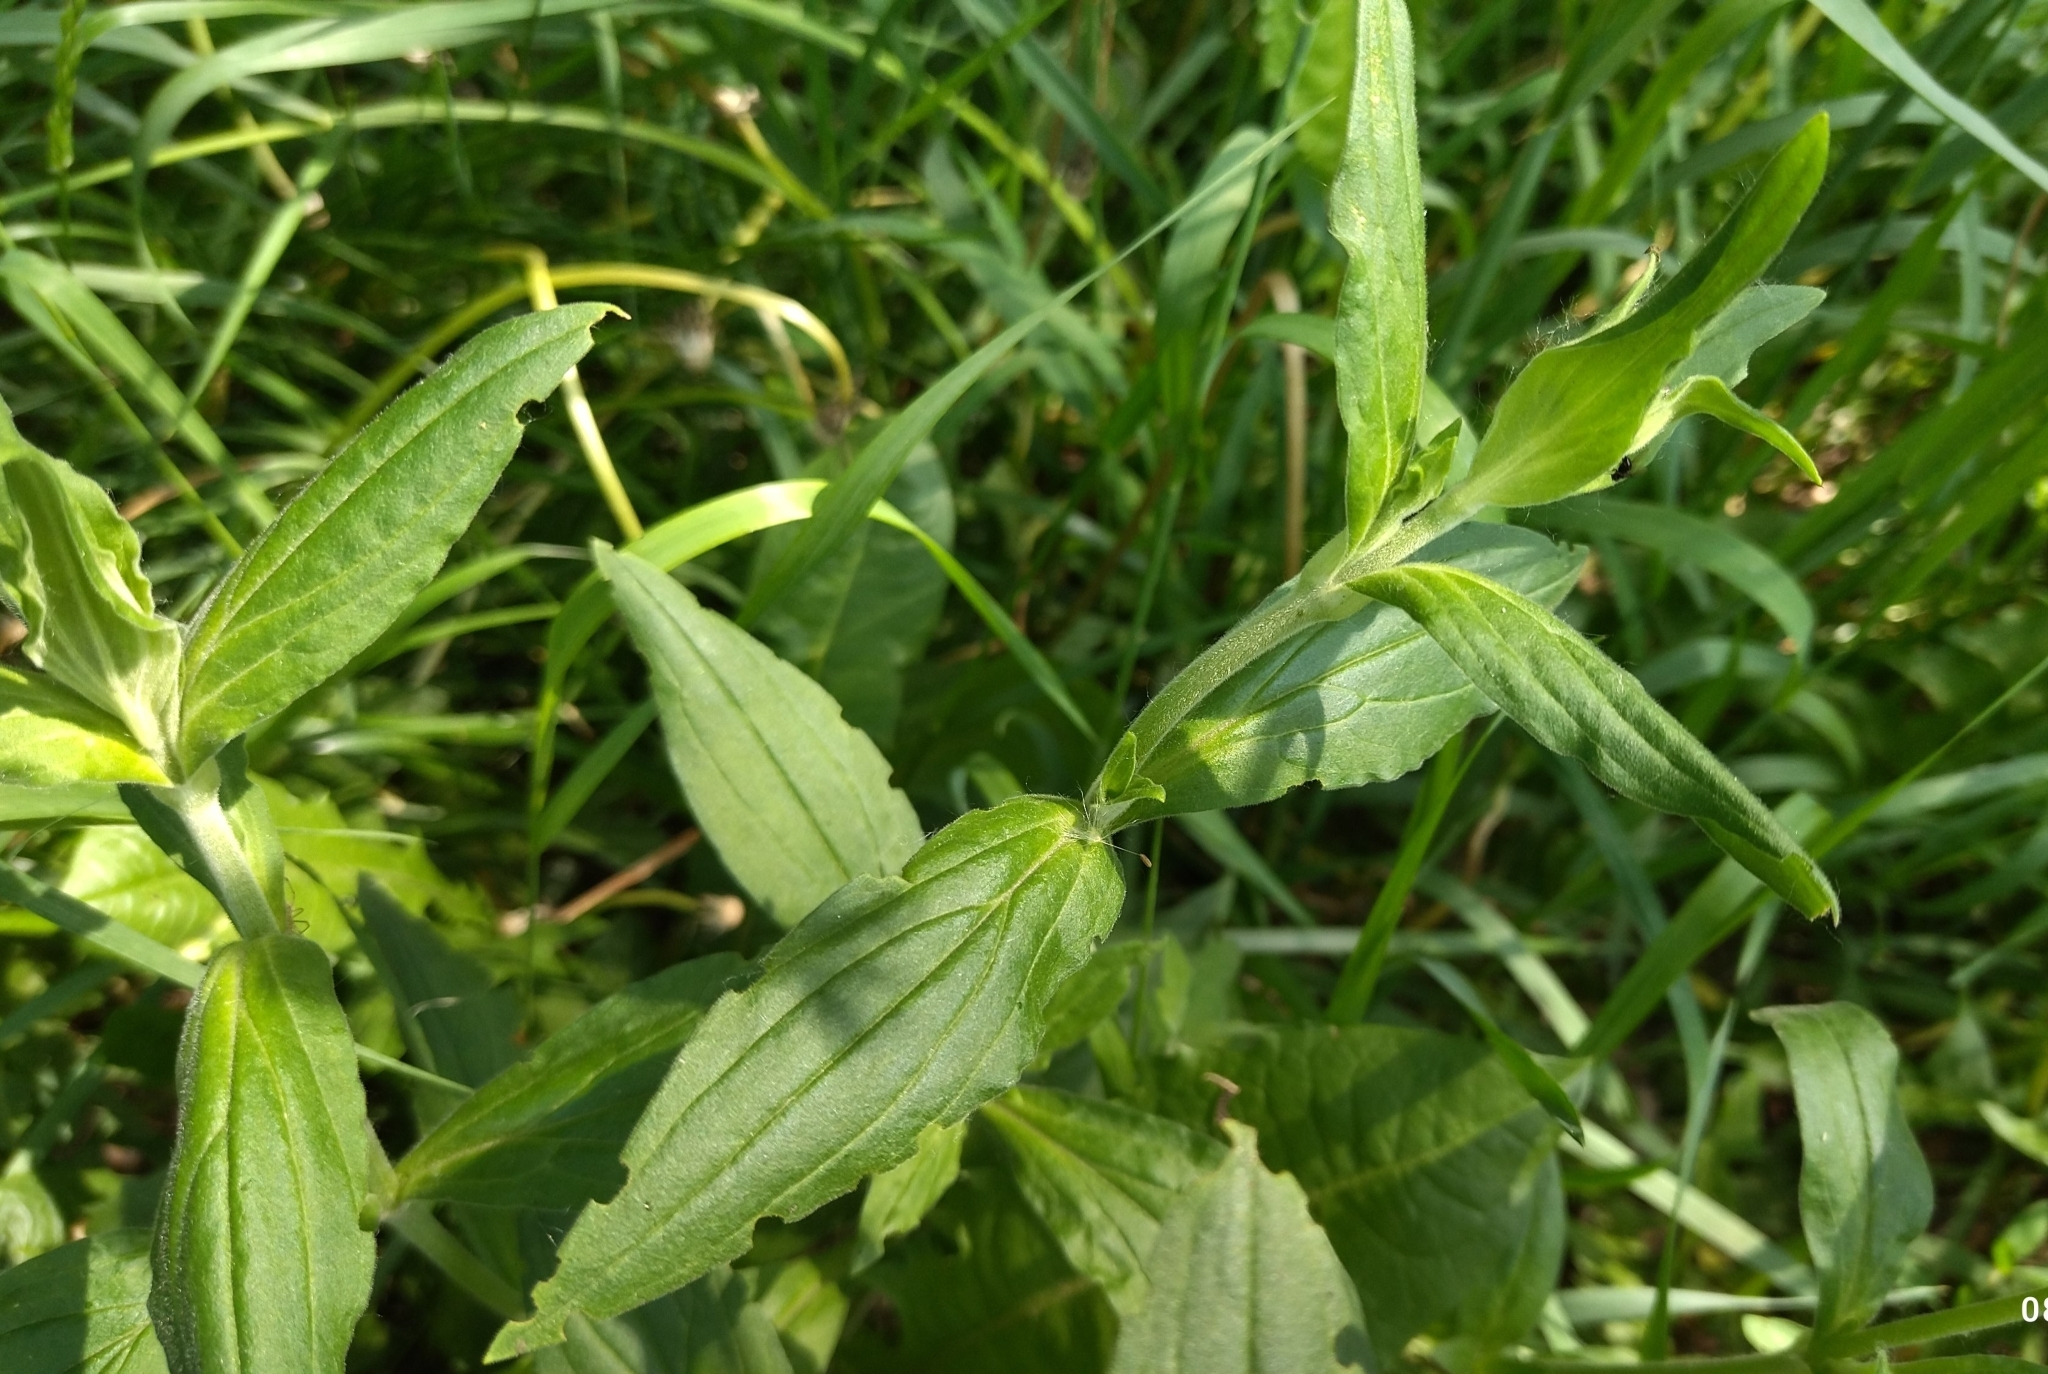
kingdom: Plantae
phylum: Tracheophyta
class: Magnoliopsida
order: Caryophyllales
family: Caryophyllaceae
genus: Silene
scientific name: Silene latifolia
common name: White campion
